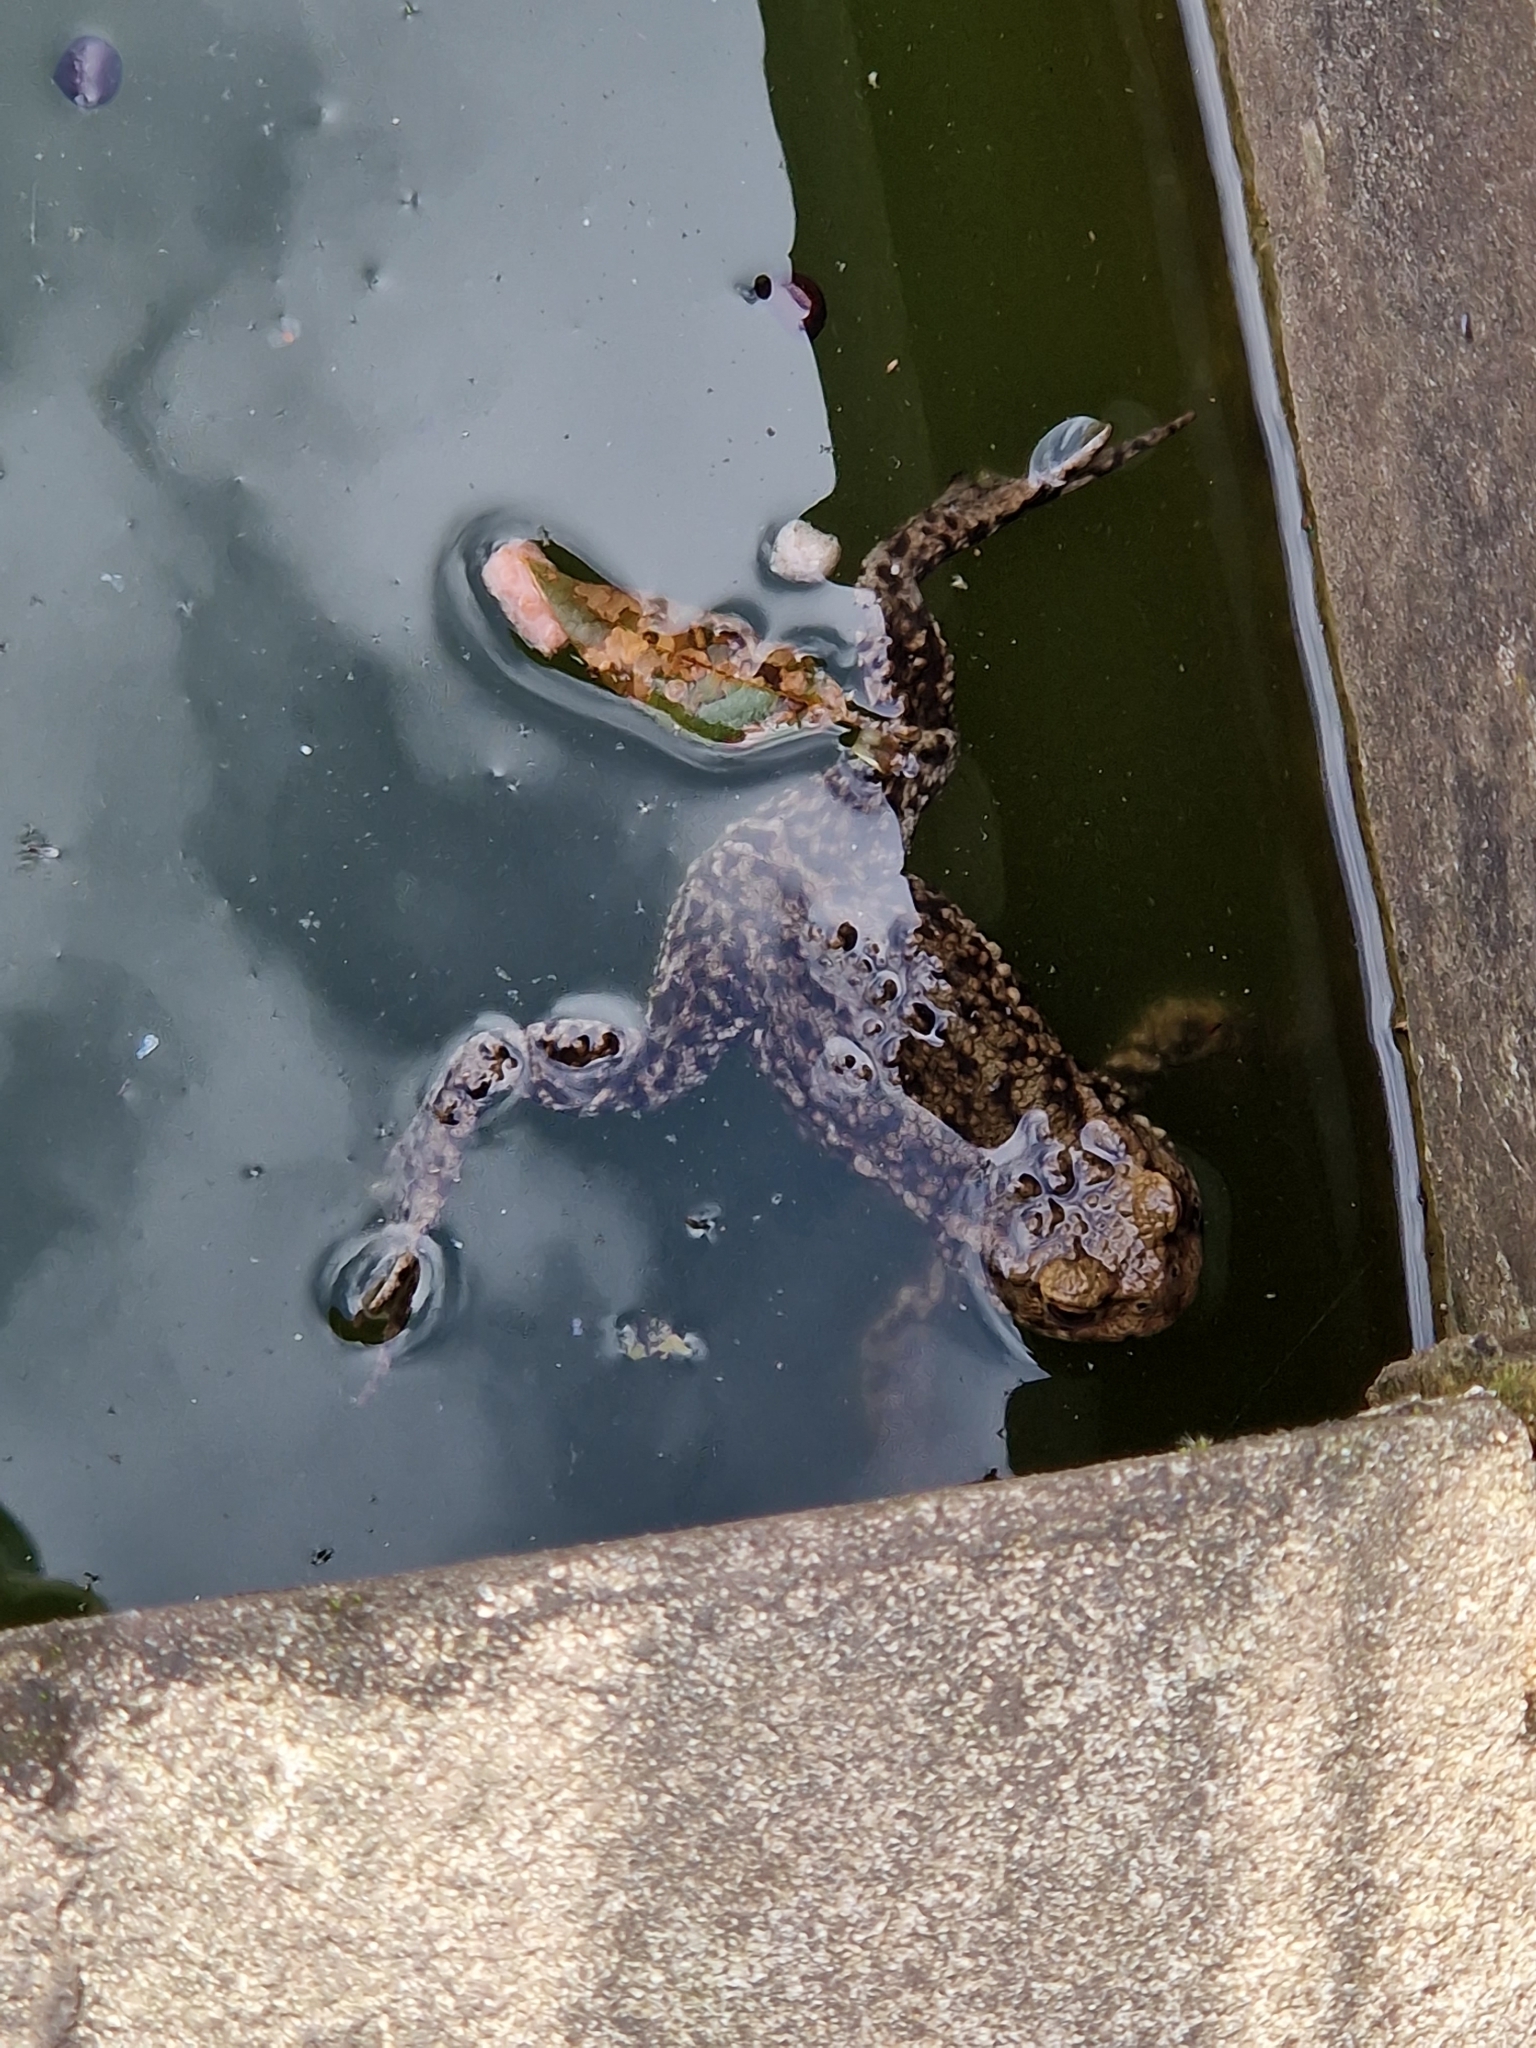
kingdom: Animalia
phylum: Chordata
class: Amphibia
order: Anura
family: Bufonidae
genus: Bufo
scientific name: Bufo bufo
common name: Common toad
